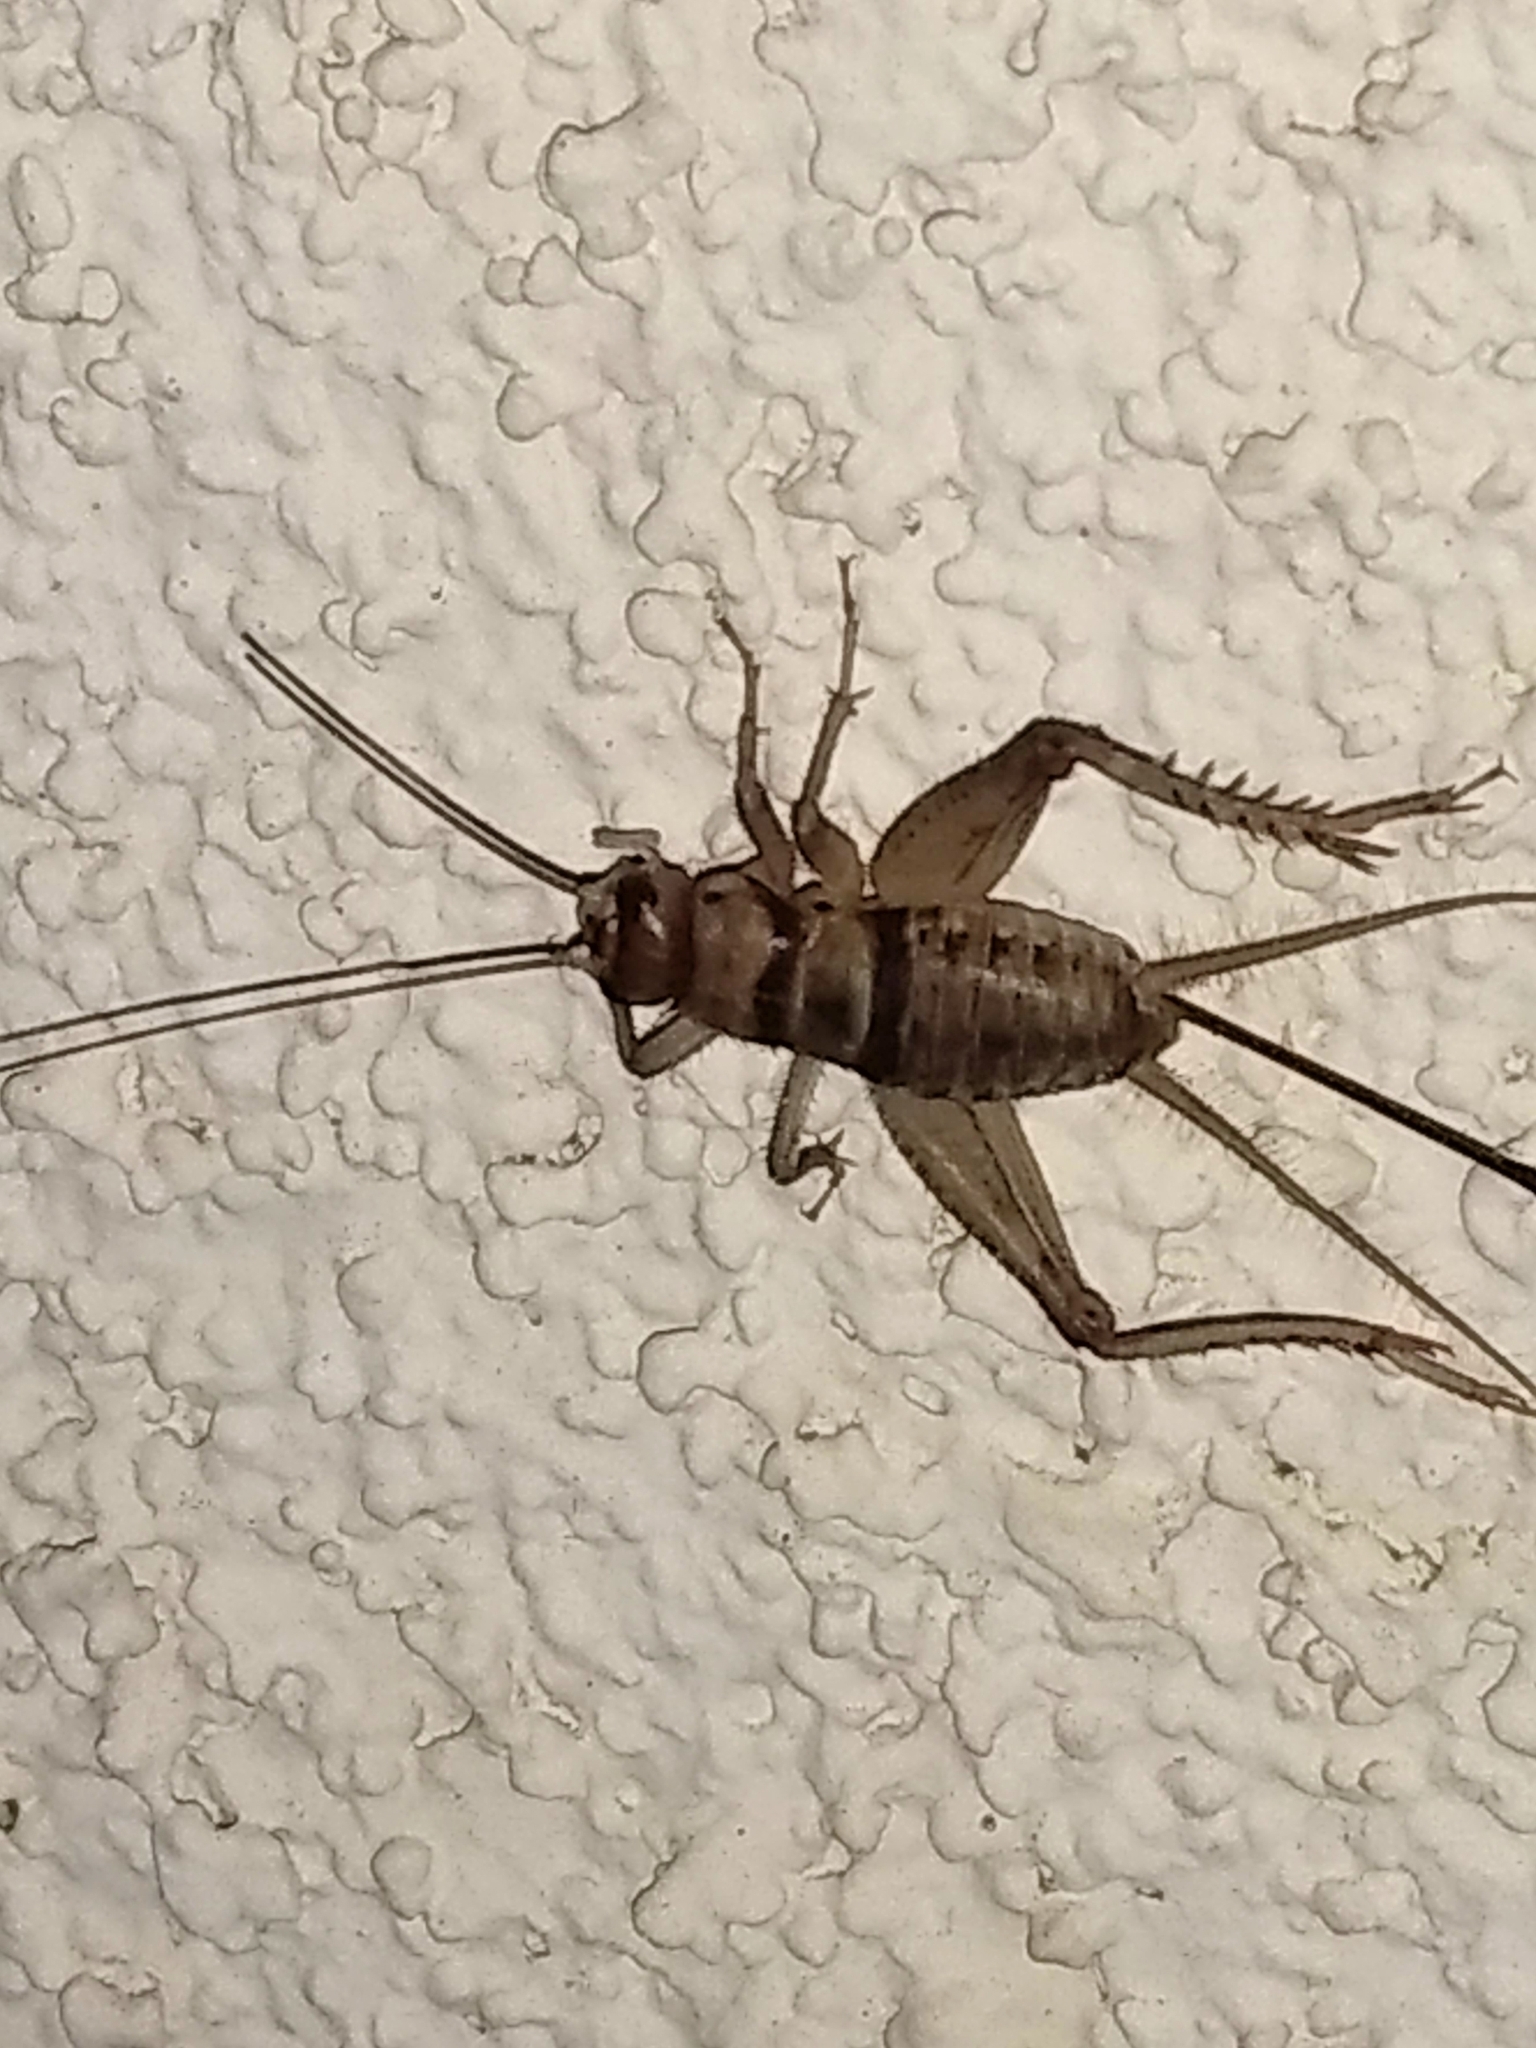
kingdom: Animalia
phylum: Arthropoda
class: Insecta
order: Orthoptera
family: Gryllidae
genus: Gryllodes
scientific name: Gryllodes sigillatus
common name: Tropical house cricket
